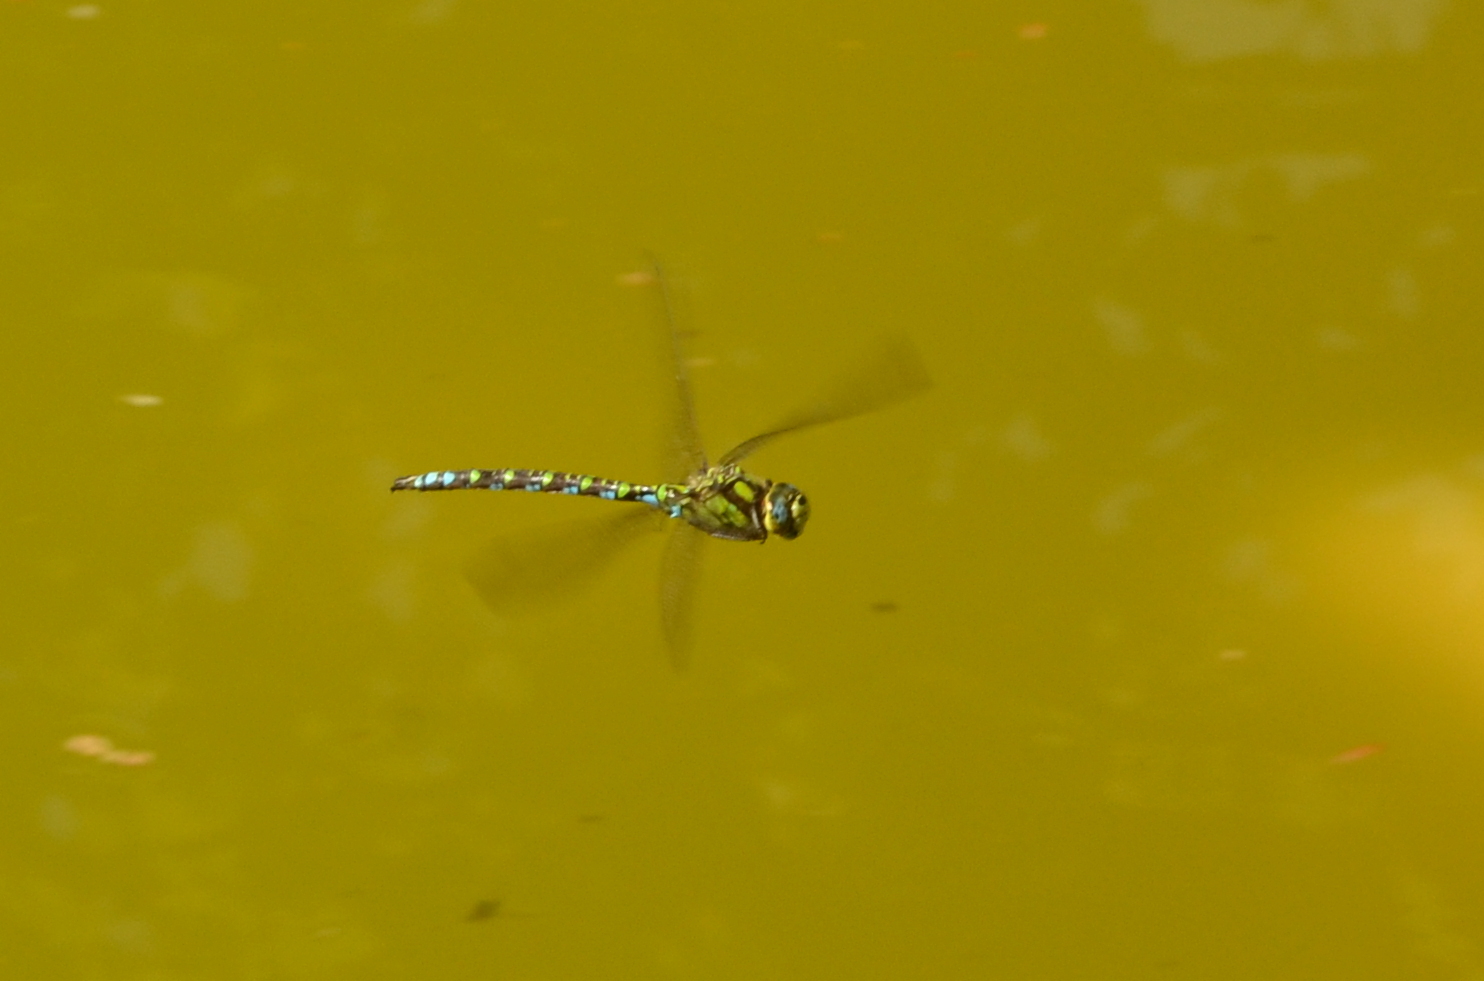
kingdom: Animalia
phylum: Arthropoda
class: Insecta
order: Odonata
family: Aeshnidae
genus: Aeshna
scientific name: Aeshna cyanea
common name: Southern hawker
